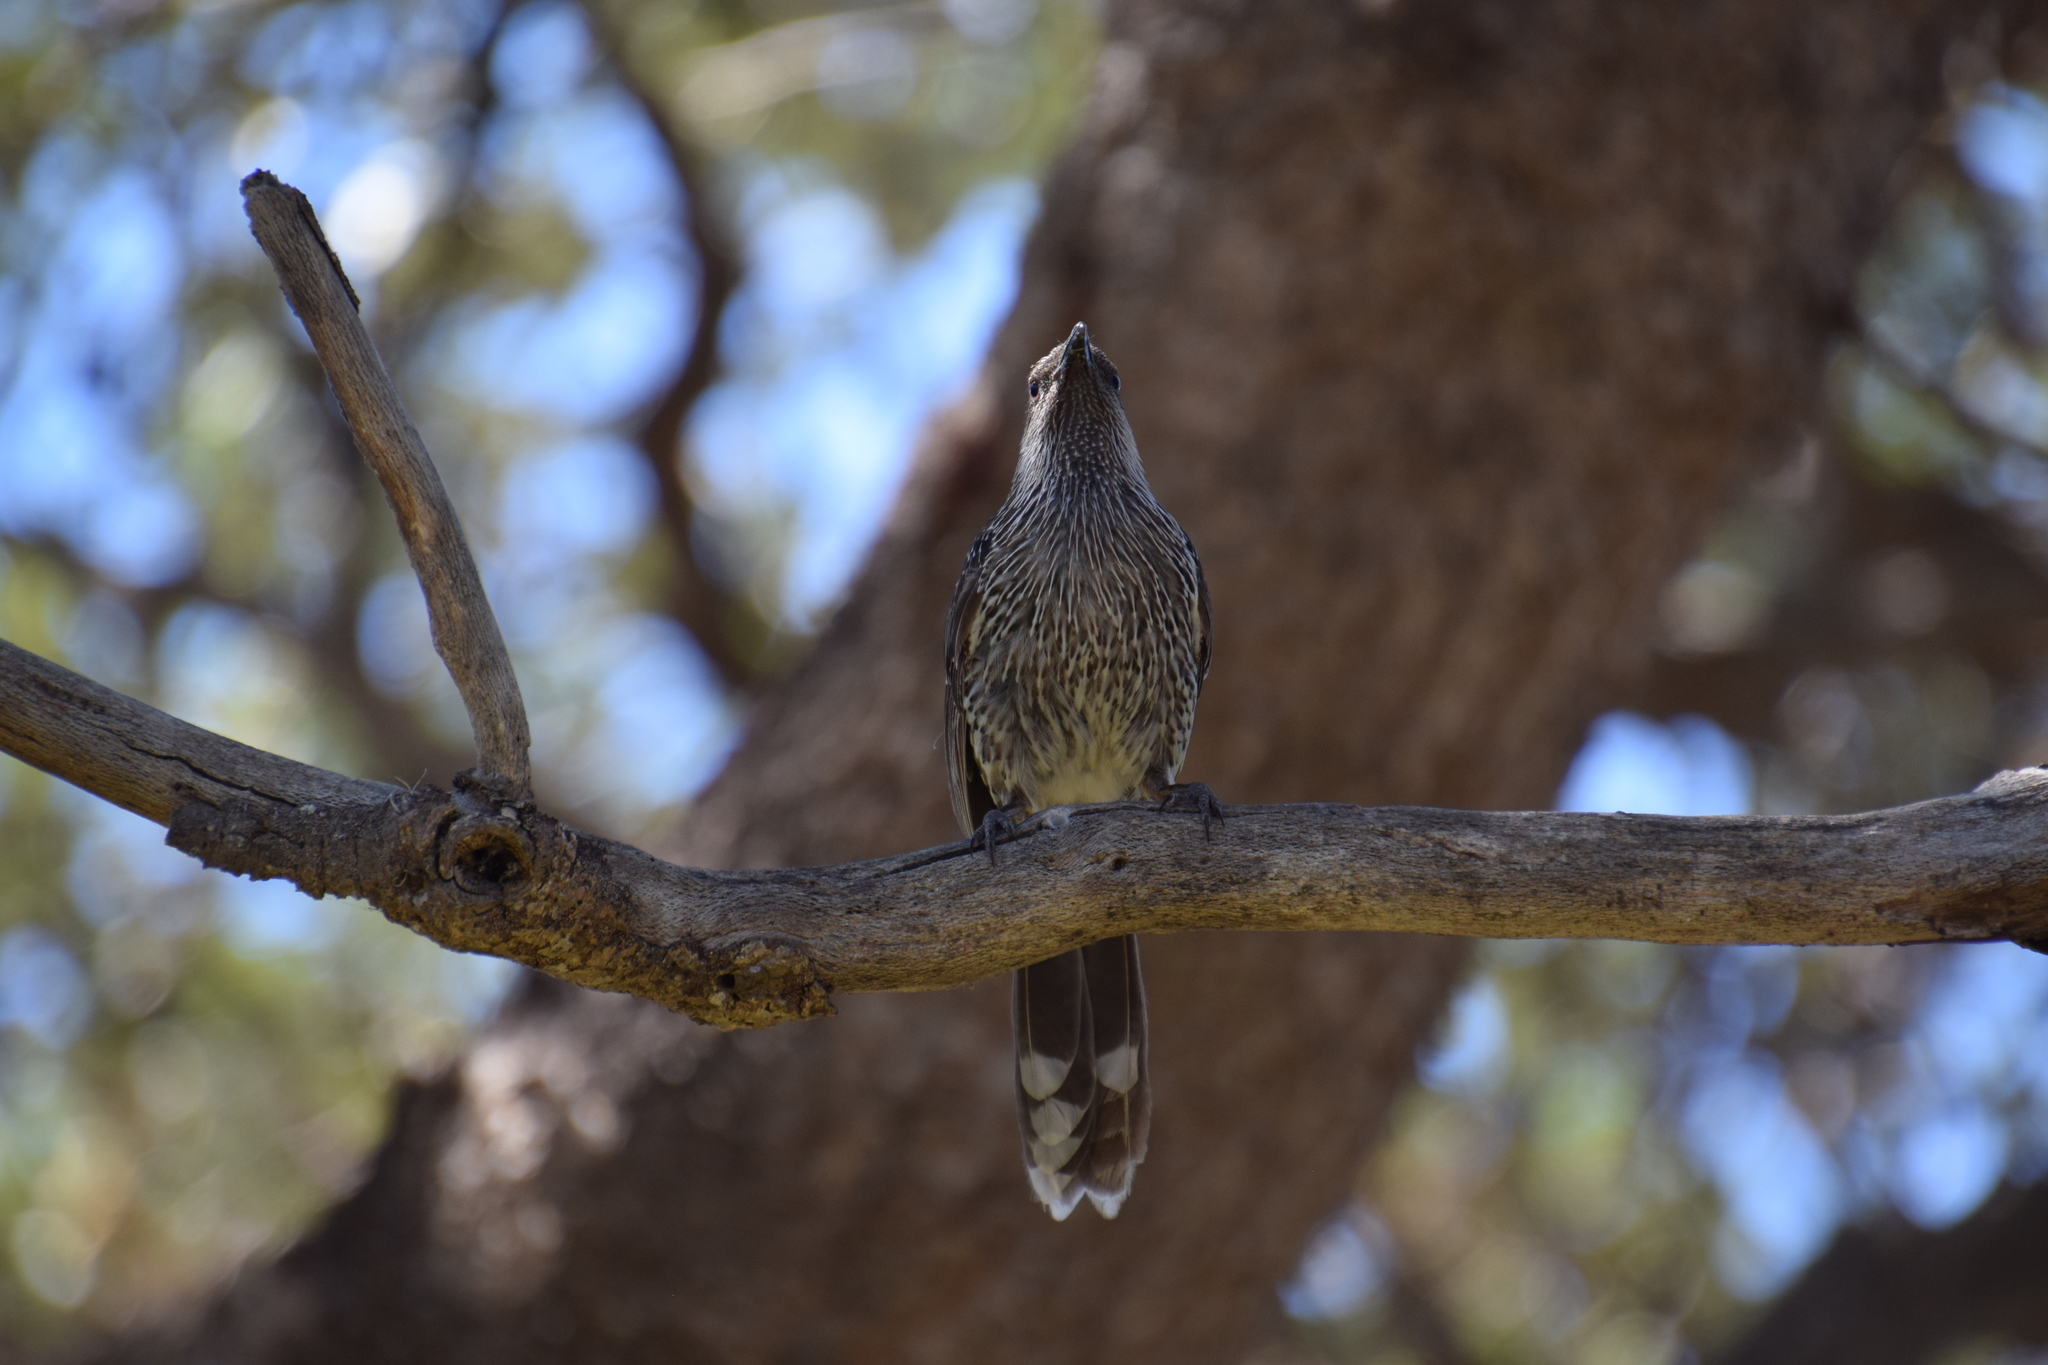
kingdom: Animalia
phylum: Chordata
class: Aves
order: Passeriformes
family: Meliphagidae
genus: Anthochaera
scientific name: Anthochaera chrysoptera
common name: Little wattlebird
